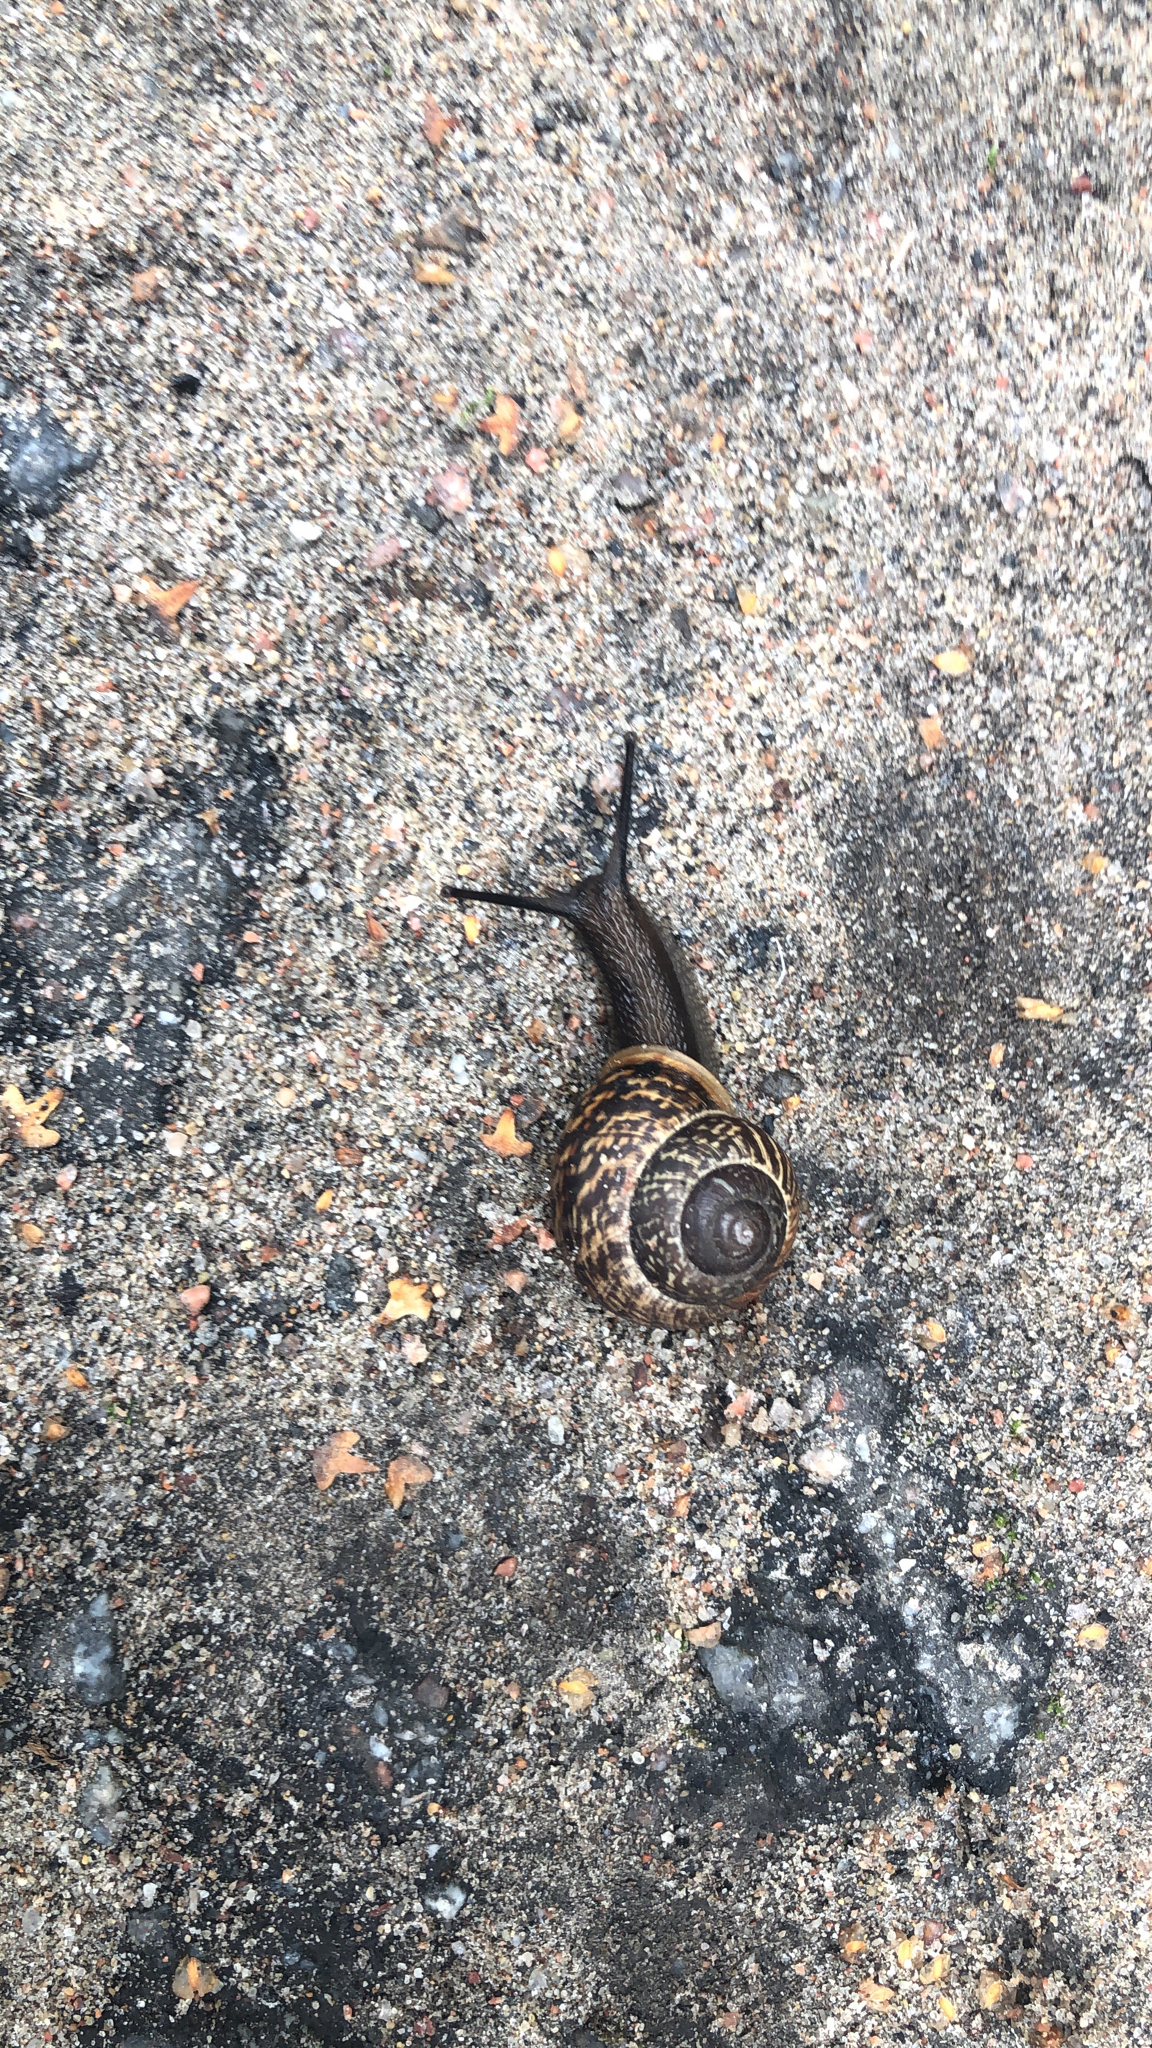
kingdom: Animalia
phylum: Mollusca
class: Gastropoda
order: Stylommatophora
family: Helicidae
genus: Arianta
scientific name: Arianta arbustorum
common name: Copse snail
